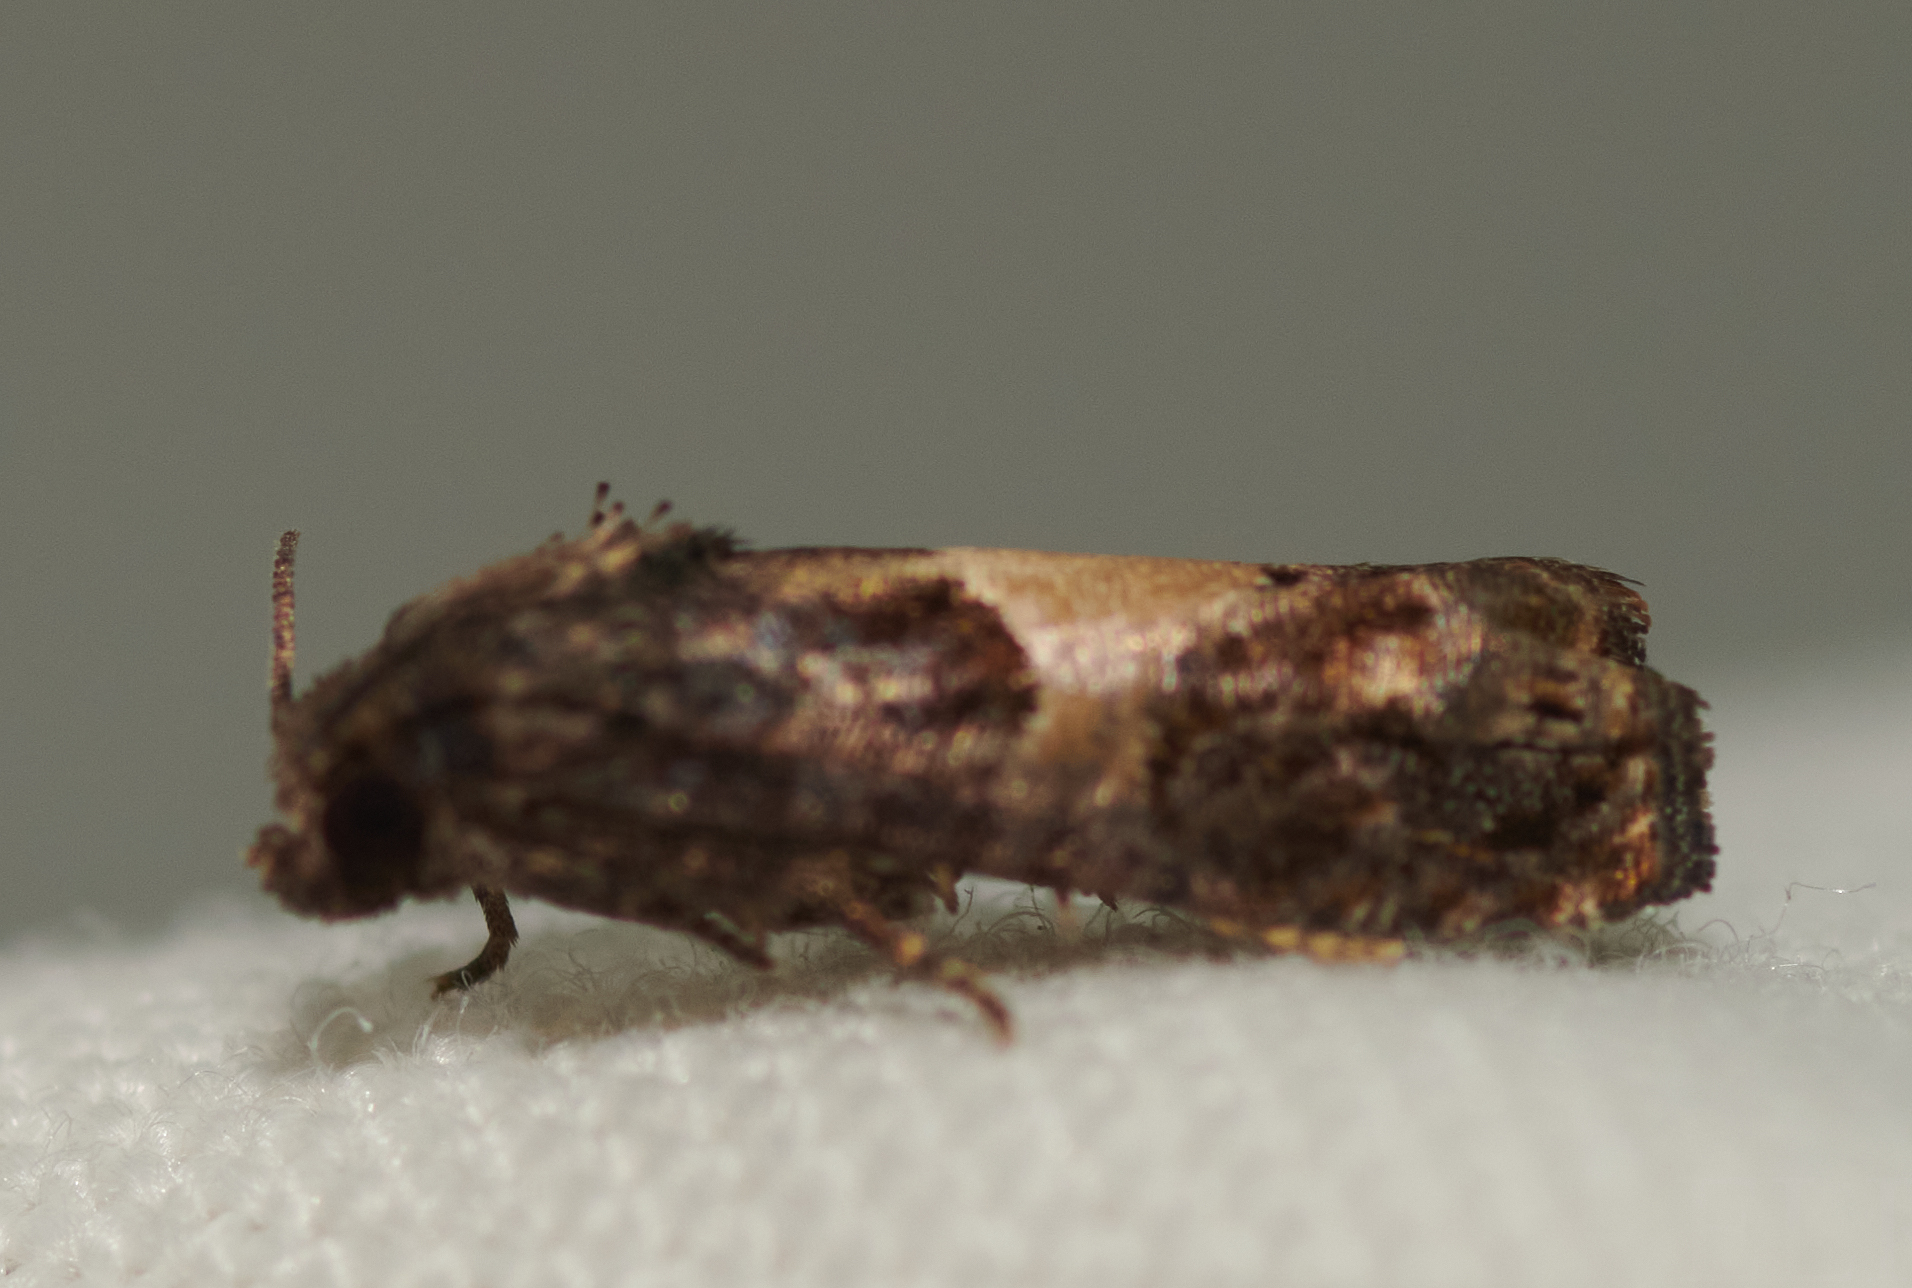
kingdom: Animalia
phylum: Arthropoda
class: Insecta
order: Lepidoptera
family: Tortricidae
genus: Epiblema
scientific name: Epiblema glenni
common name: Glenn's epiblema
